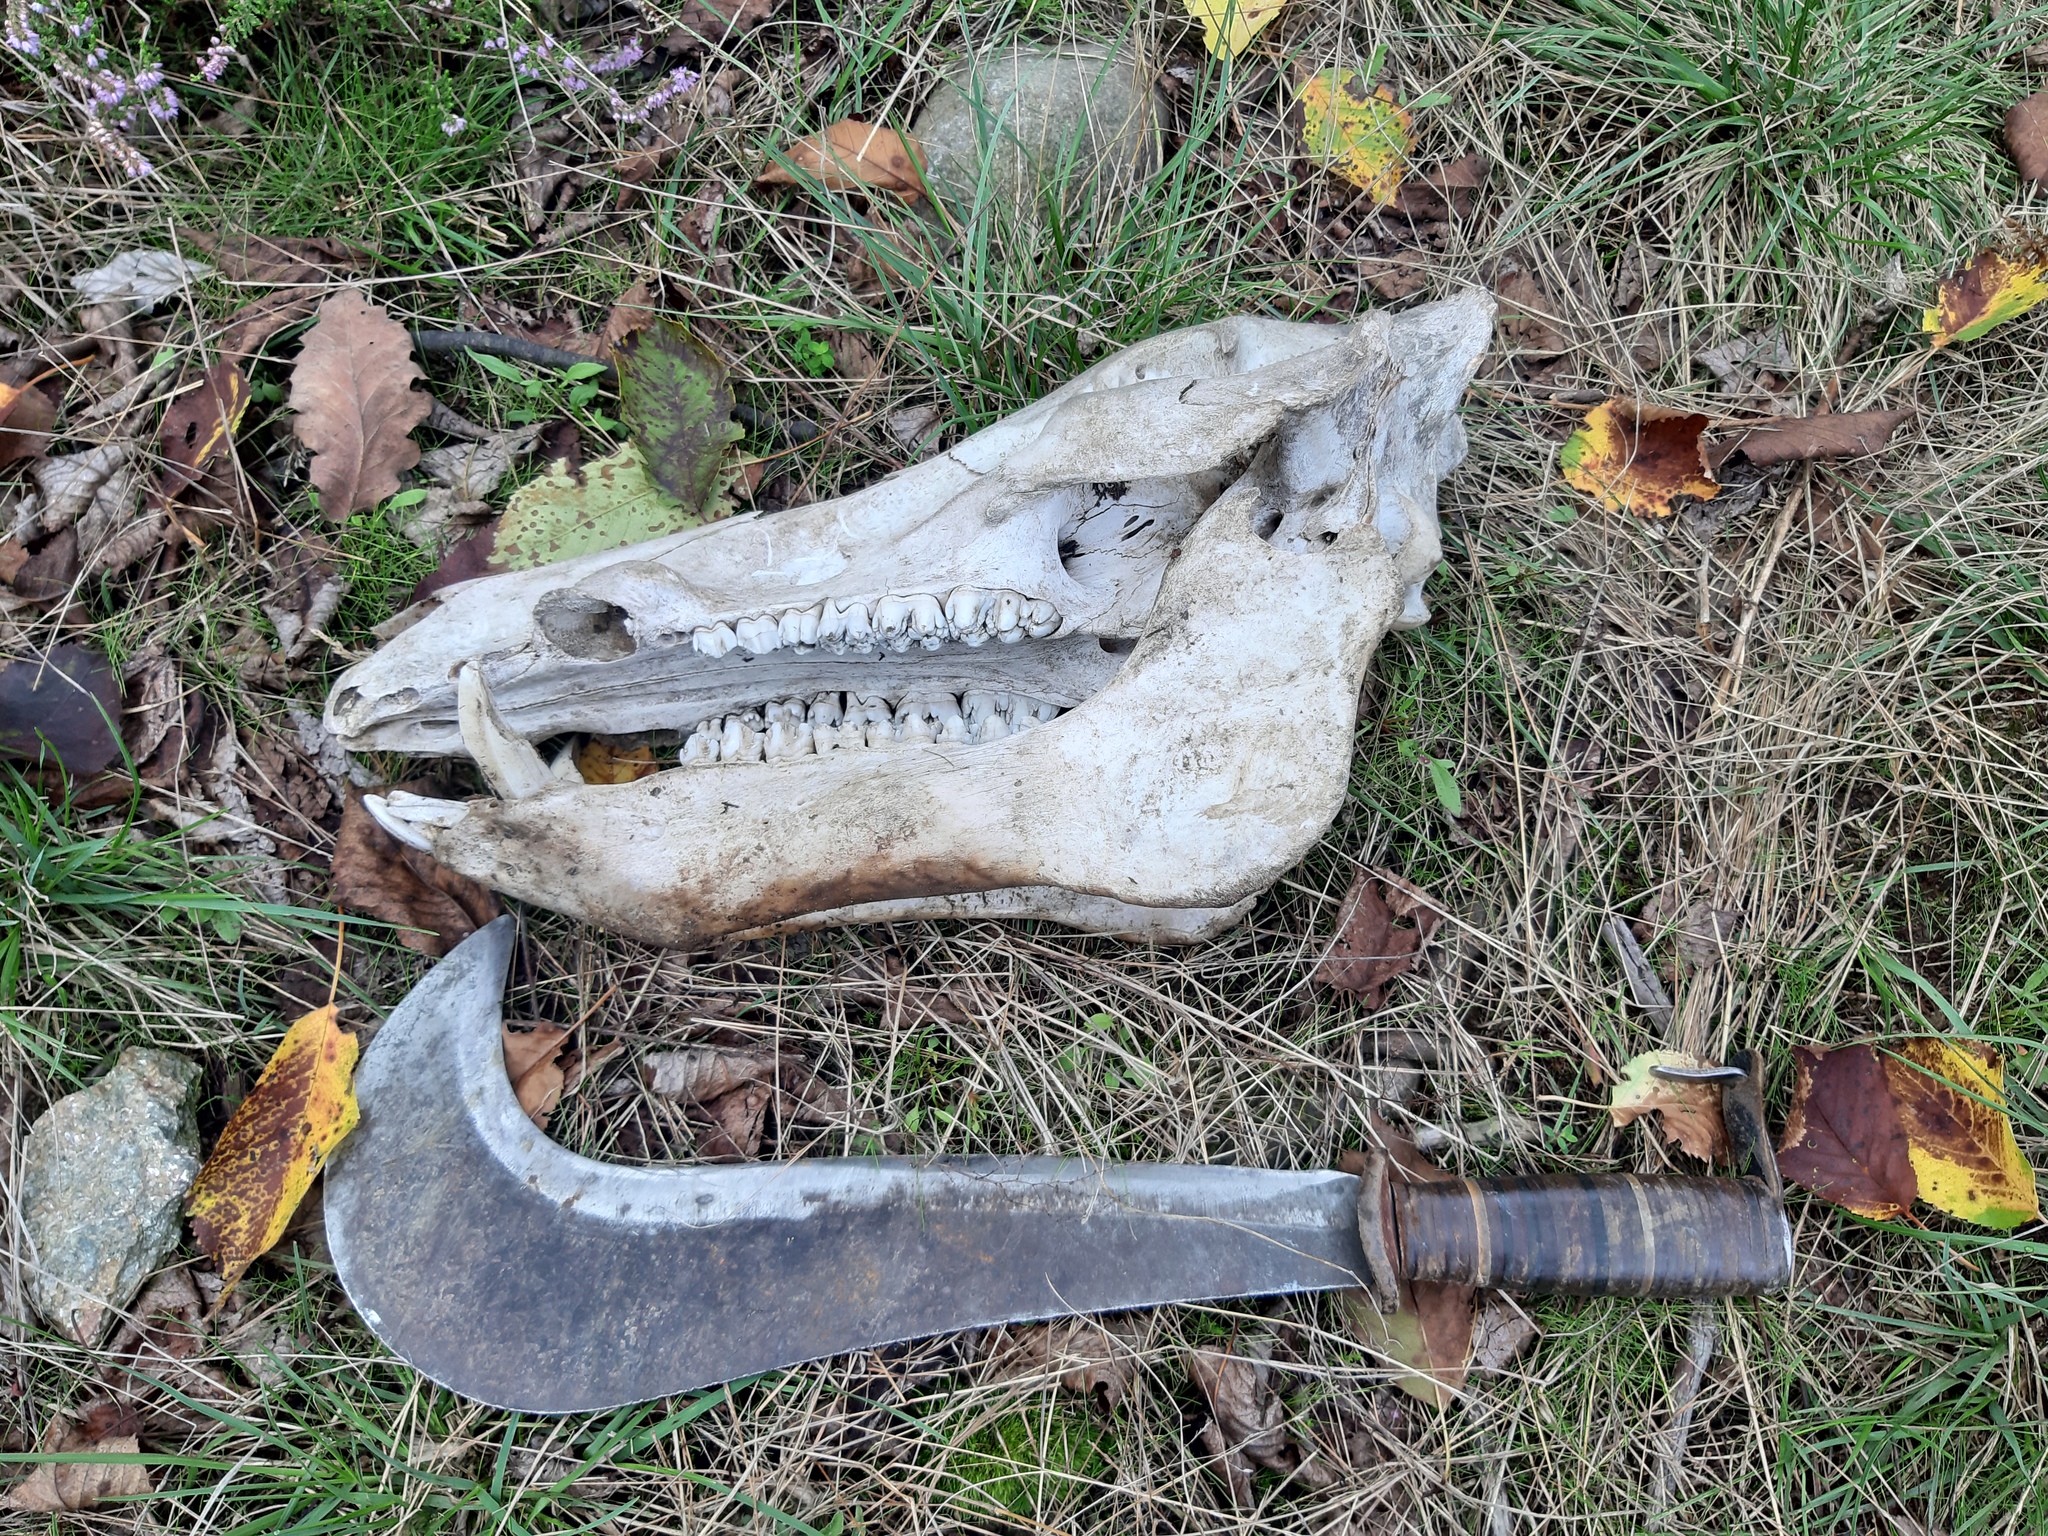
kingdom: Animalia
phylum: Chordata
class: Mammalia
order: Artiodactyla
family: Suidae
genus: Sus
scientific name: Sus scrofa
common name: Wild boar
